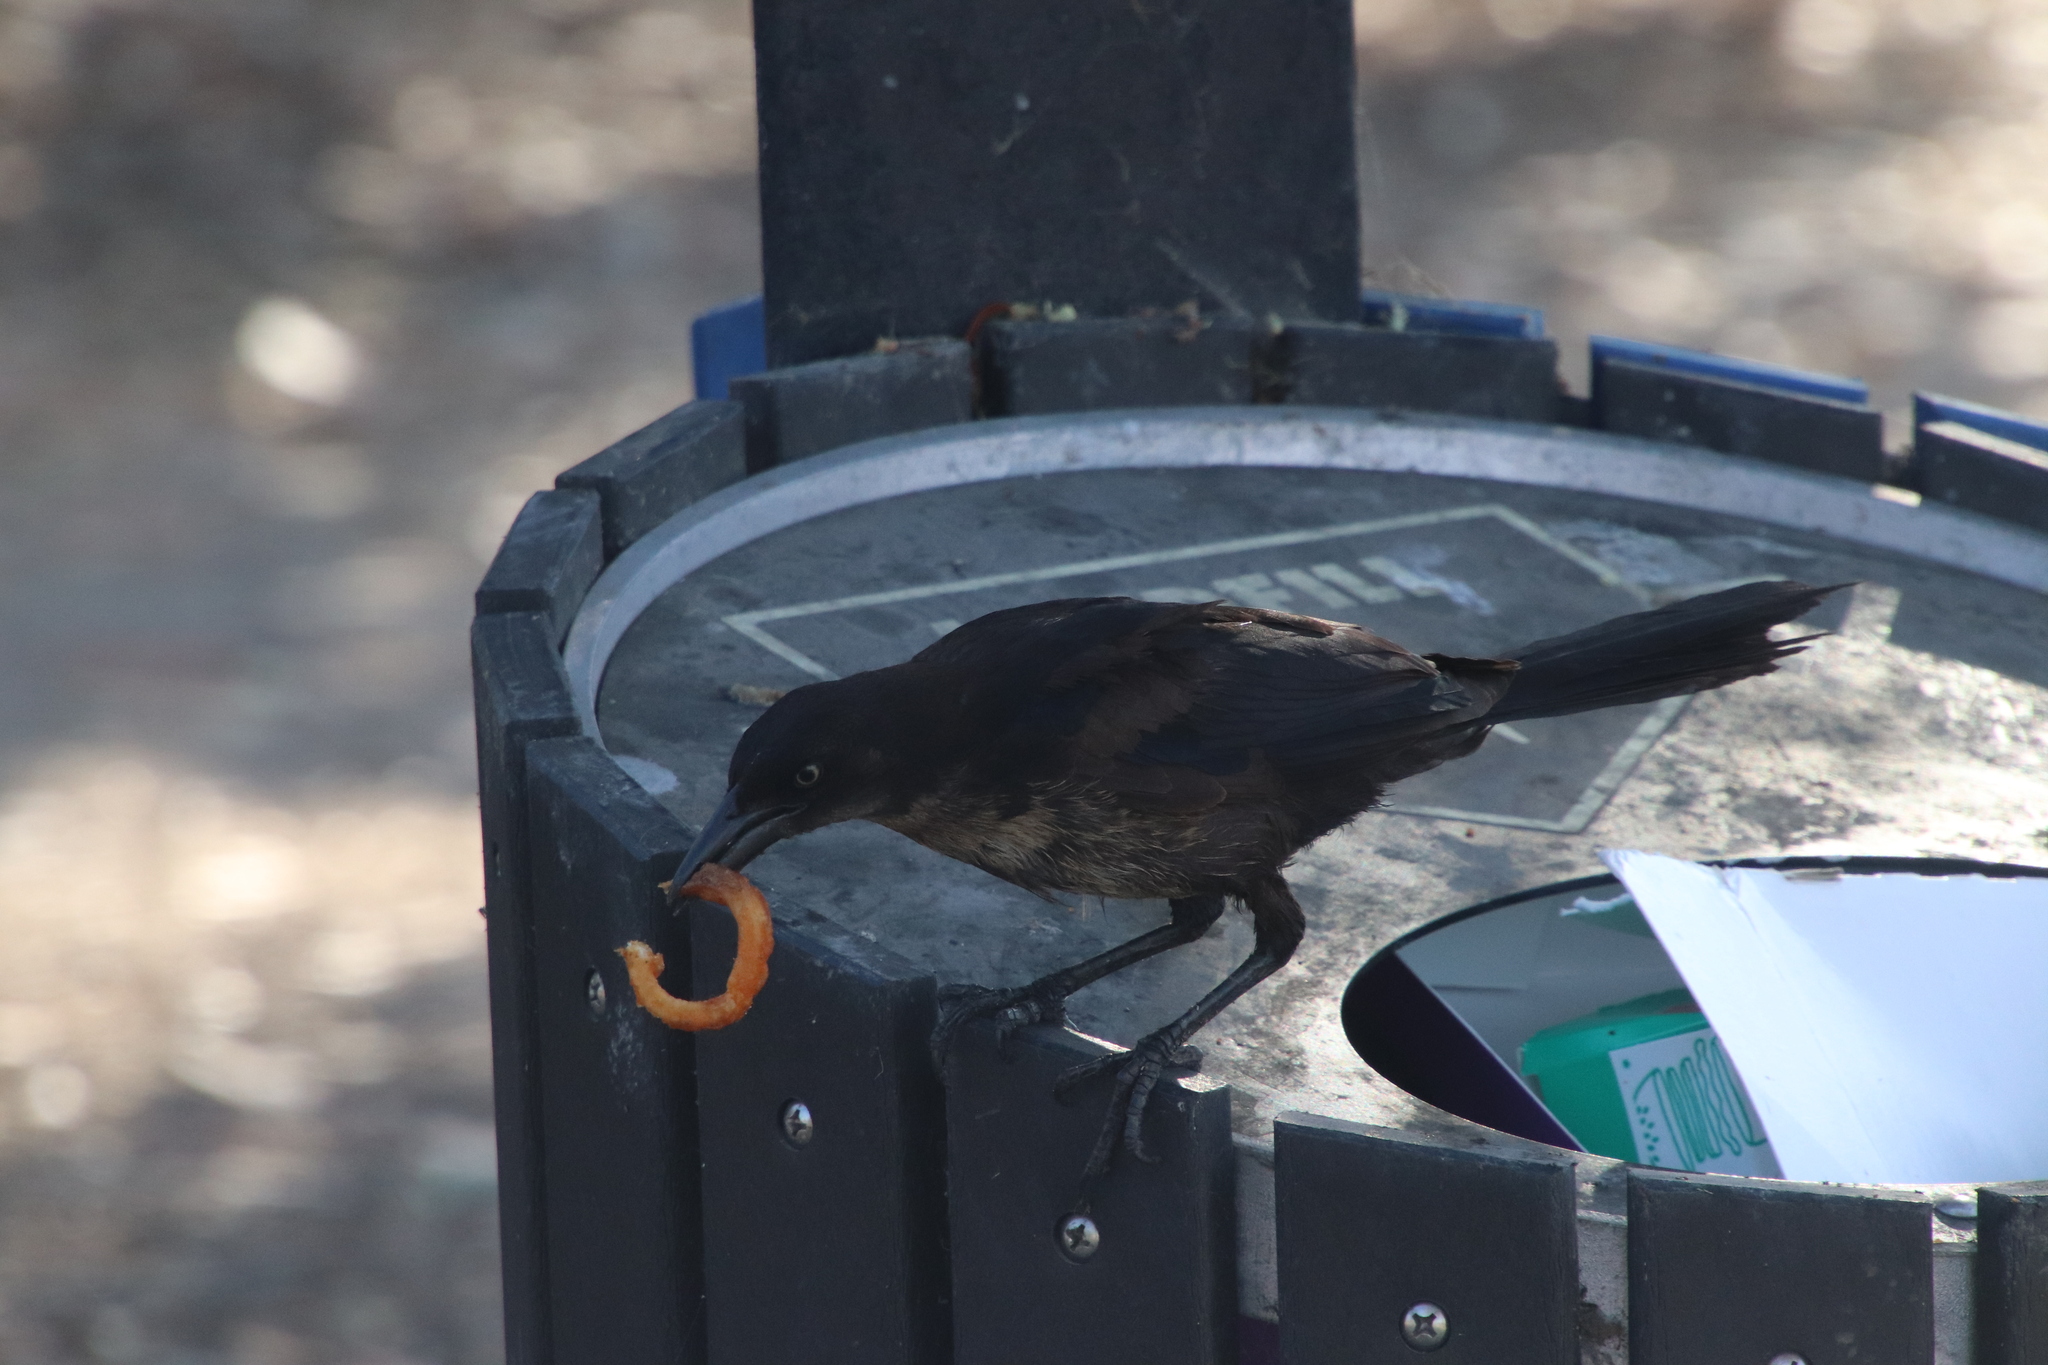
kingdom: Animalia
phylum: Chordata
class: Aves
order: Passeriformes
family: Icteridae
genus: Quiscalus
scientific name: Quiscalus mexicanus
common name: Great-tailed grackle
